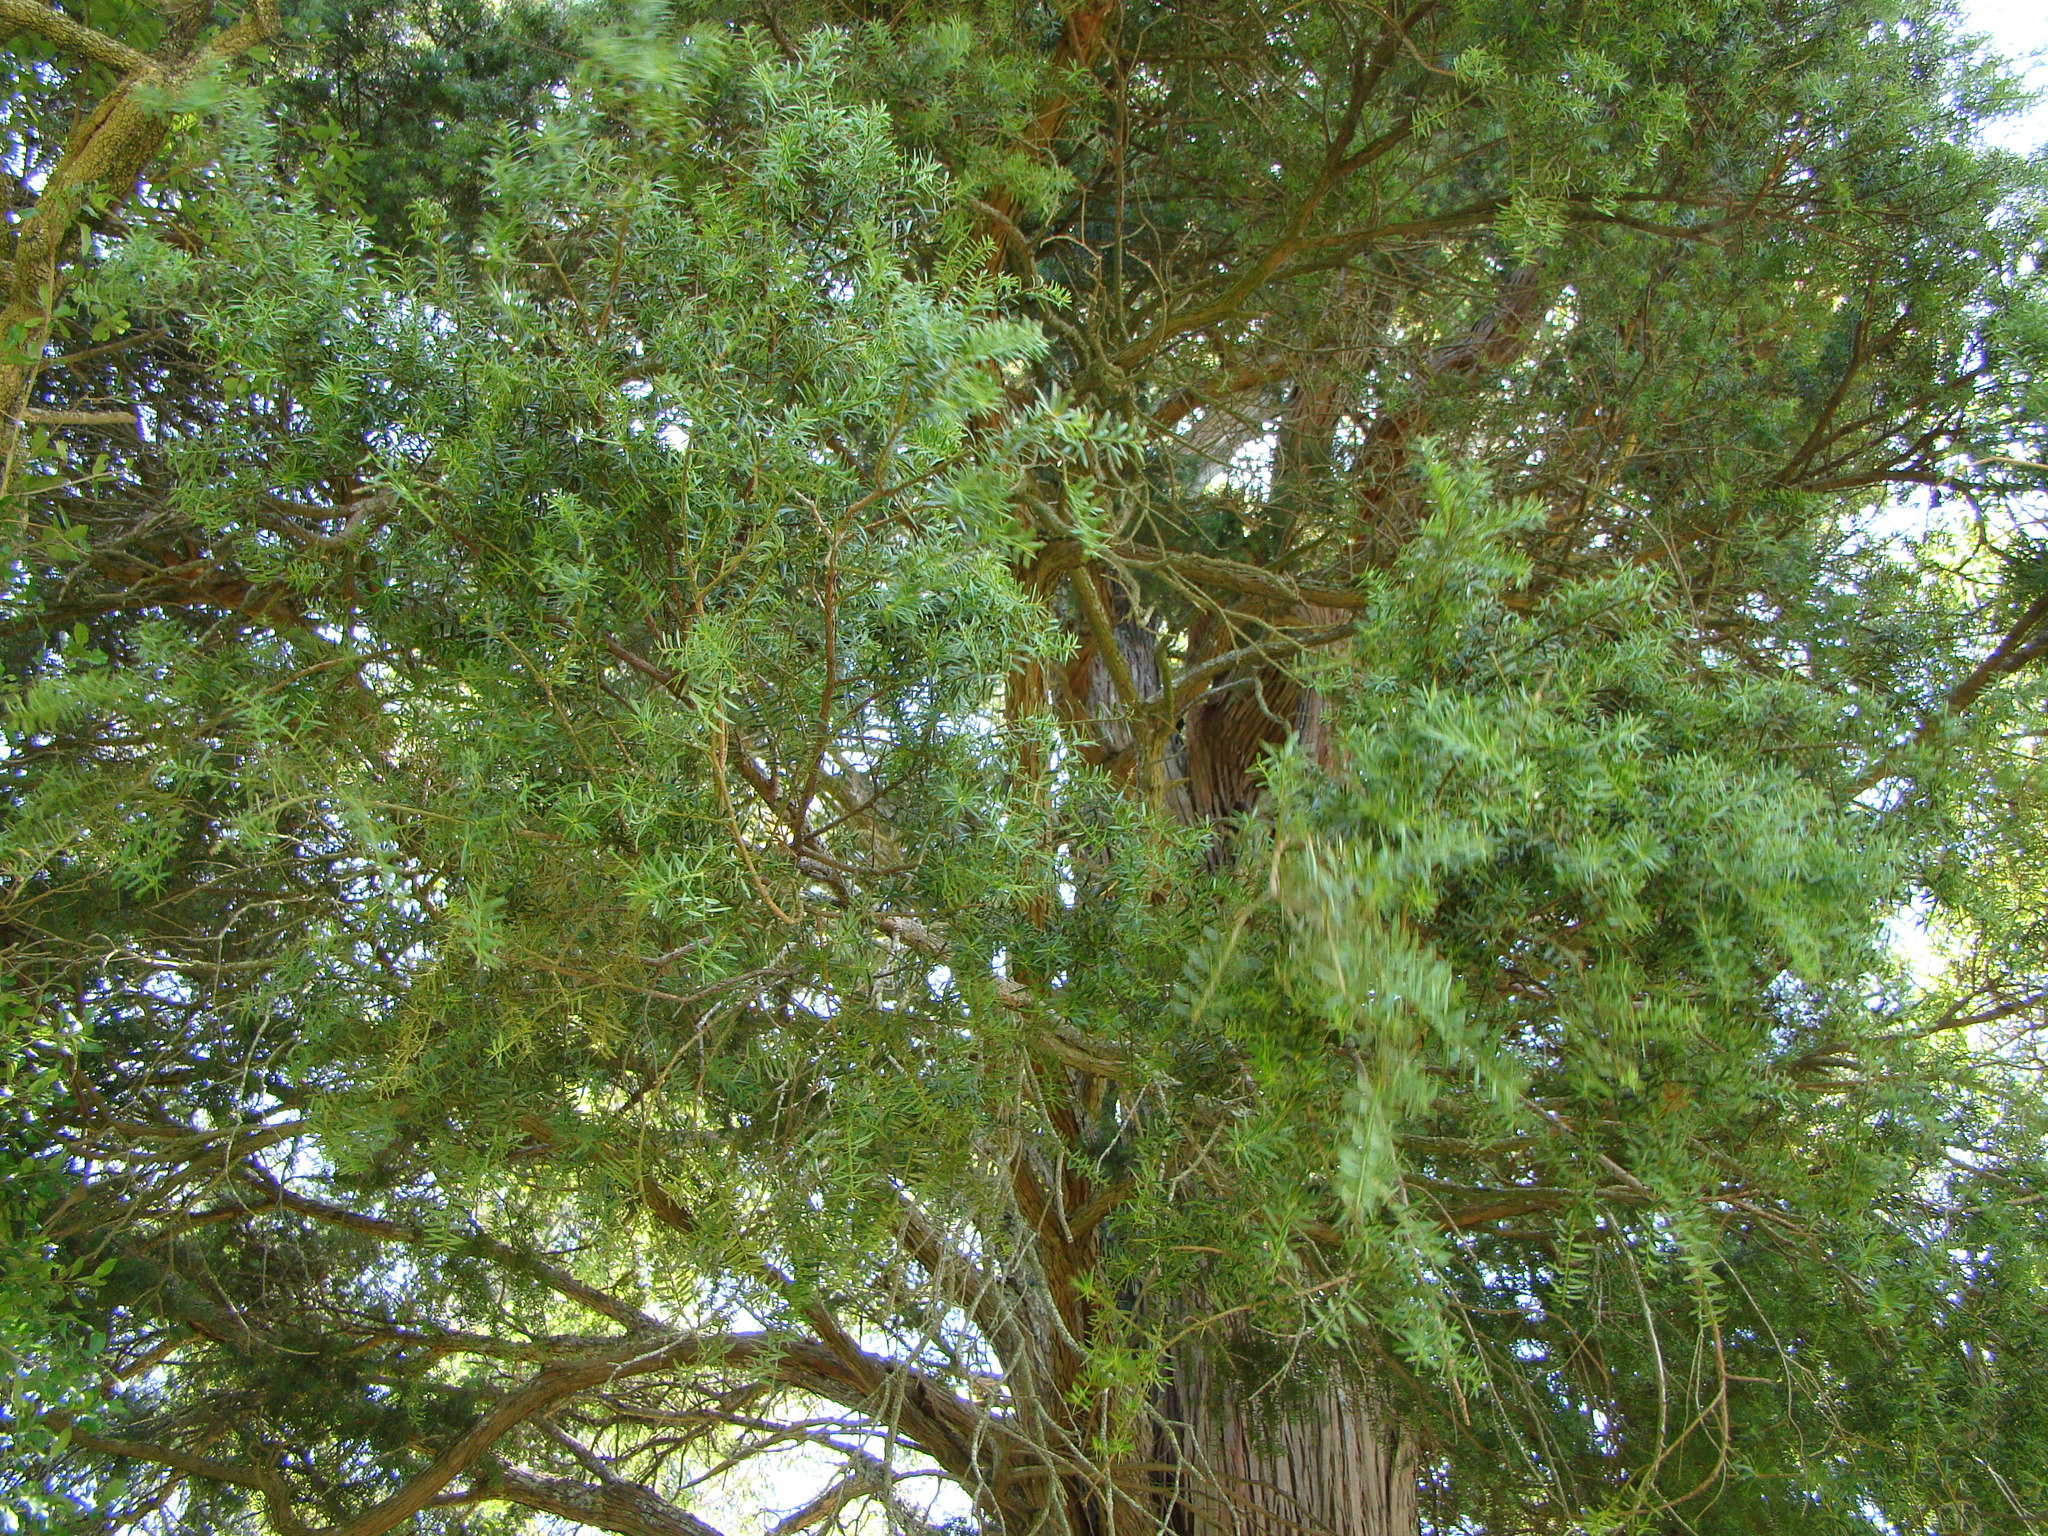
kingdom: Plantae
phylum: Tracheophyta
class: Pinopsida
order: Pinales
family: Podocarpaceae
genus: Podocarpus
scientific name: Podocarpus totara
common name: Totara
